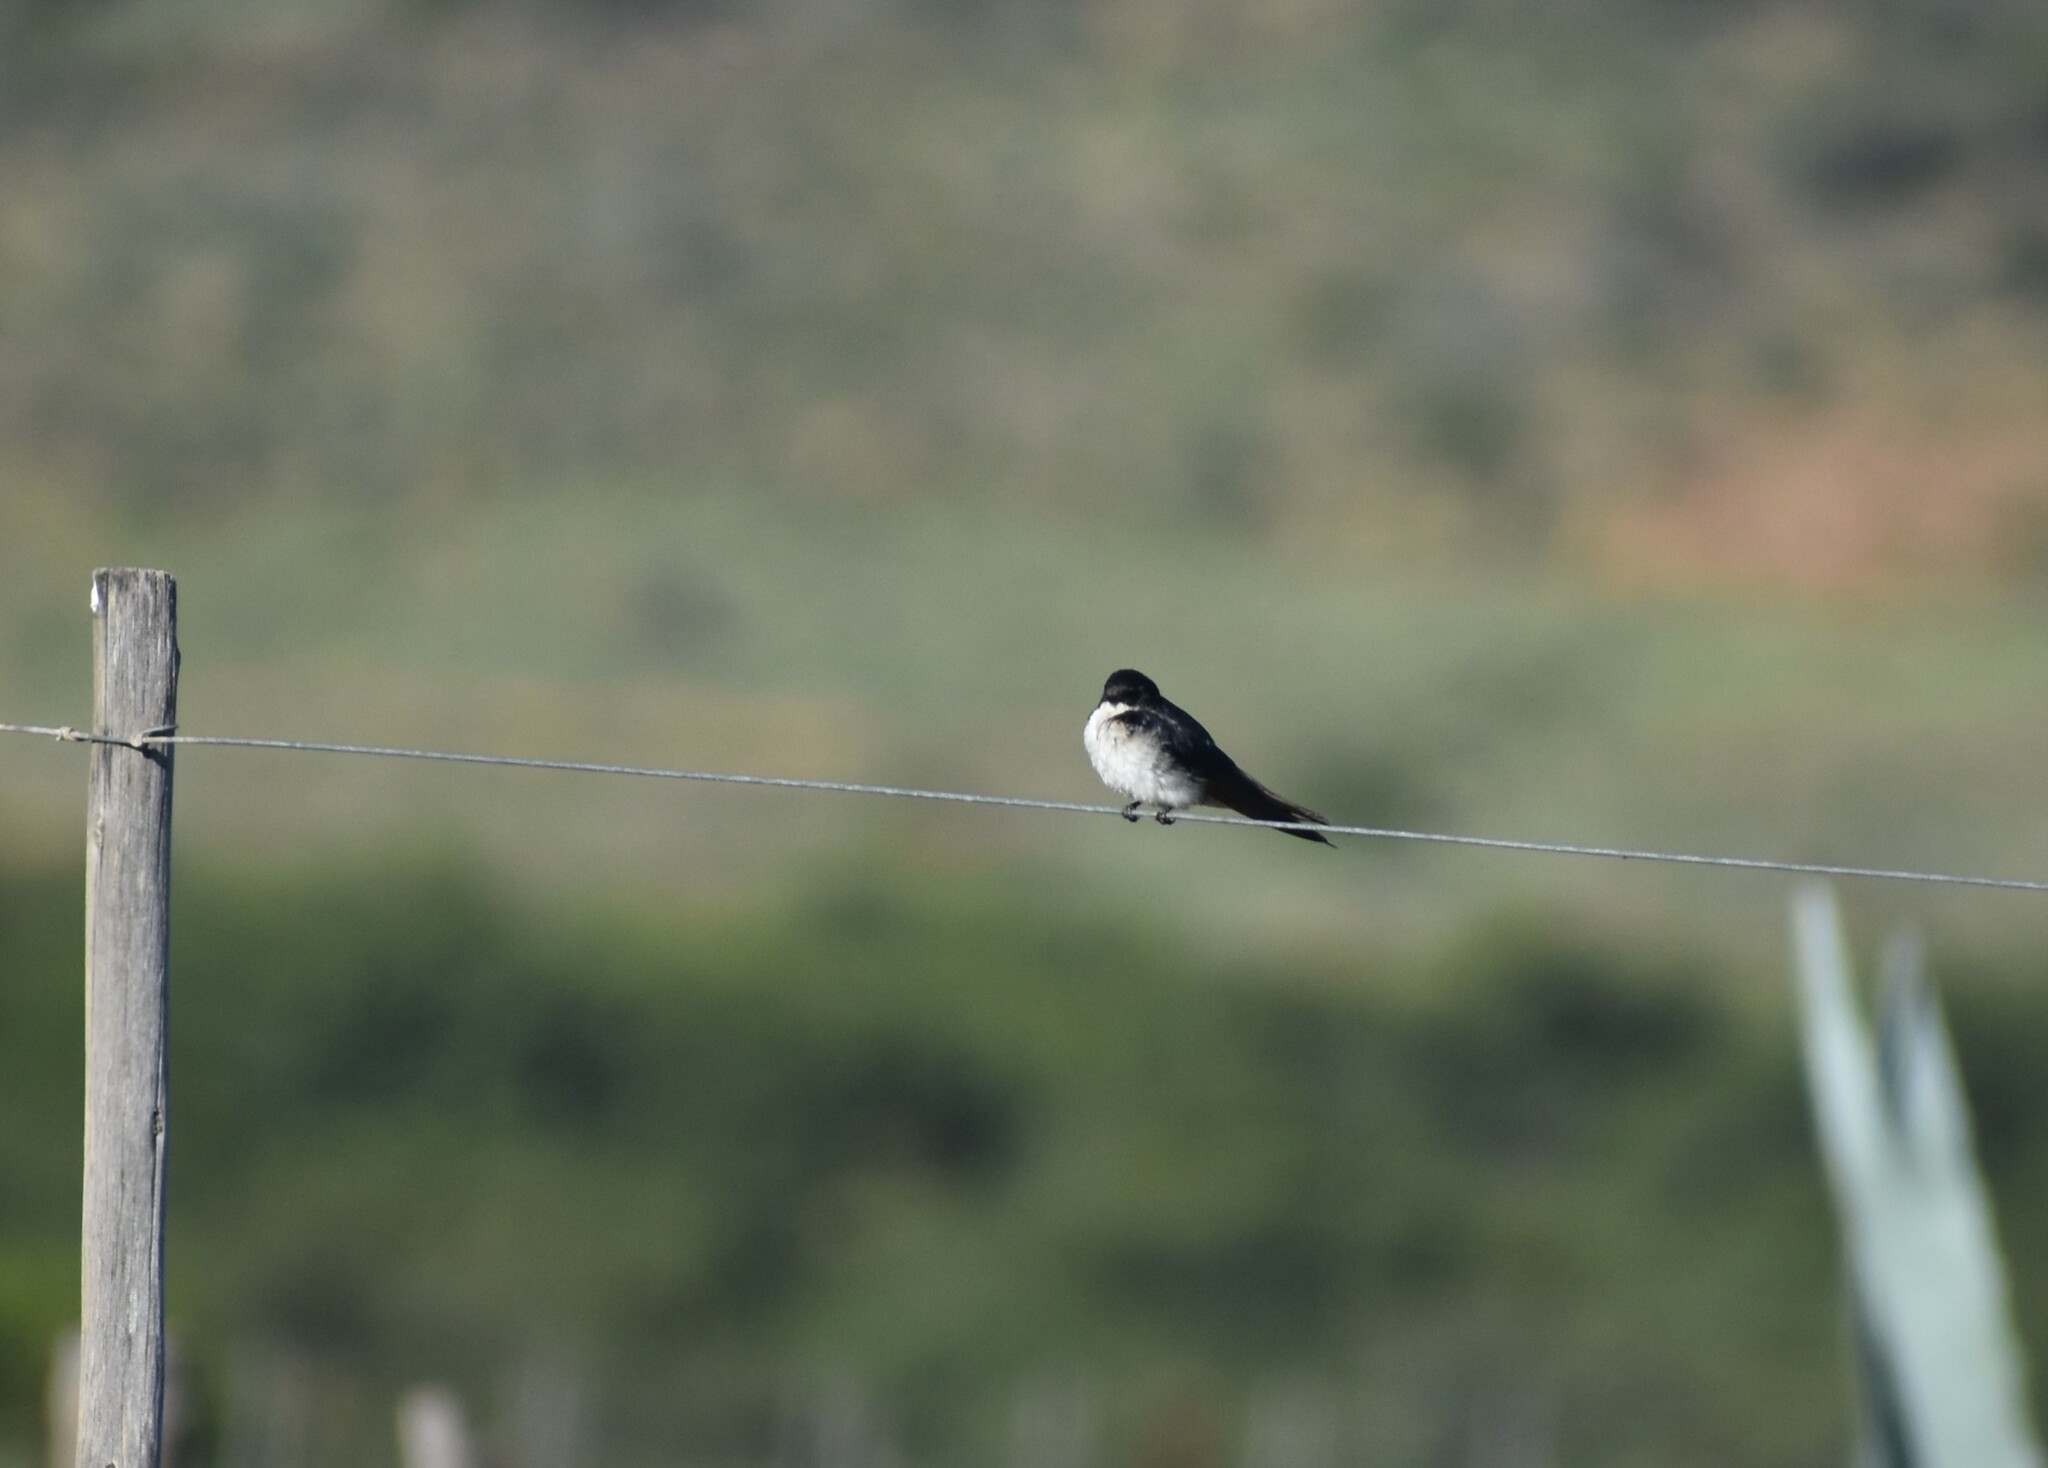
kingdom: Animalia
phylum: Chordata
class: Aves
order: Passeriformes
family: Hirundinidae
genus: Hirundo
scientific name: Hirundo dimidiata
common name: Pearl-breasted swallow
